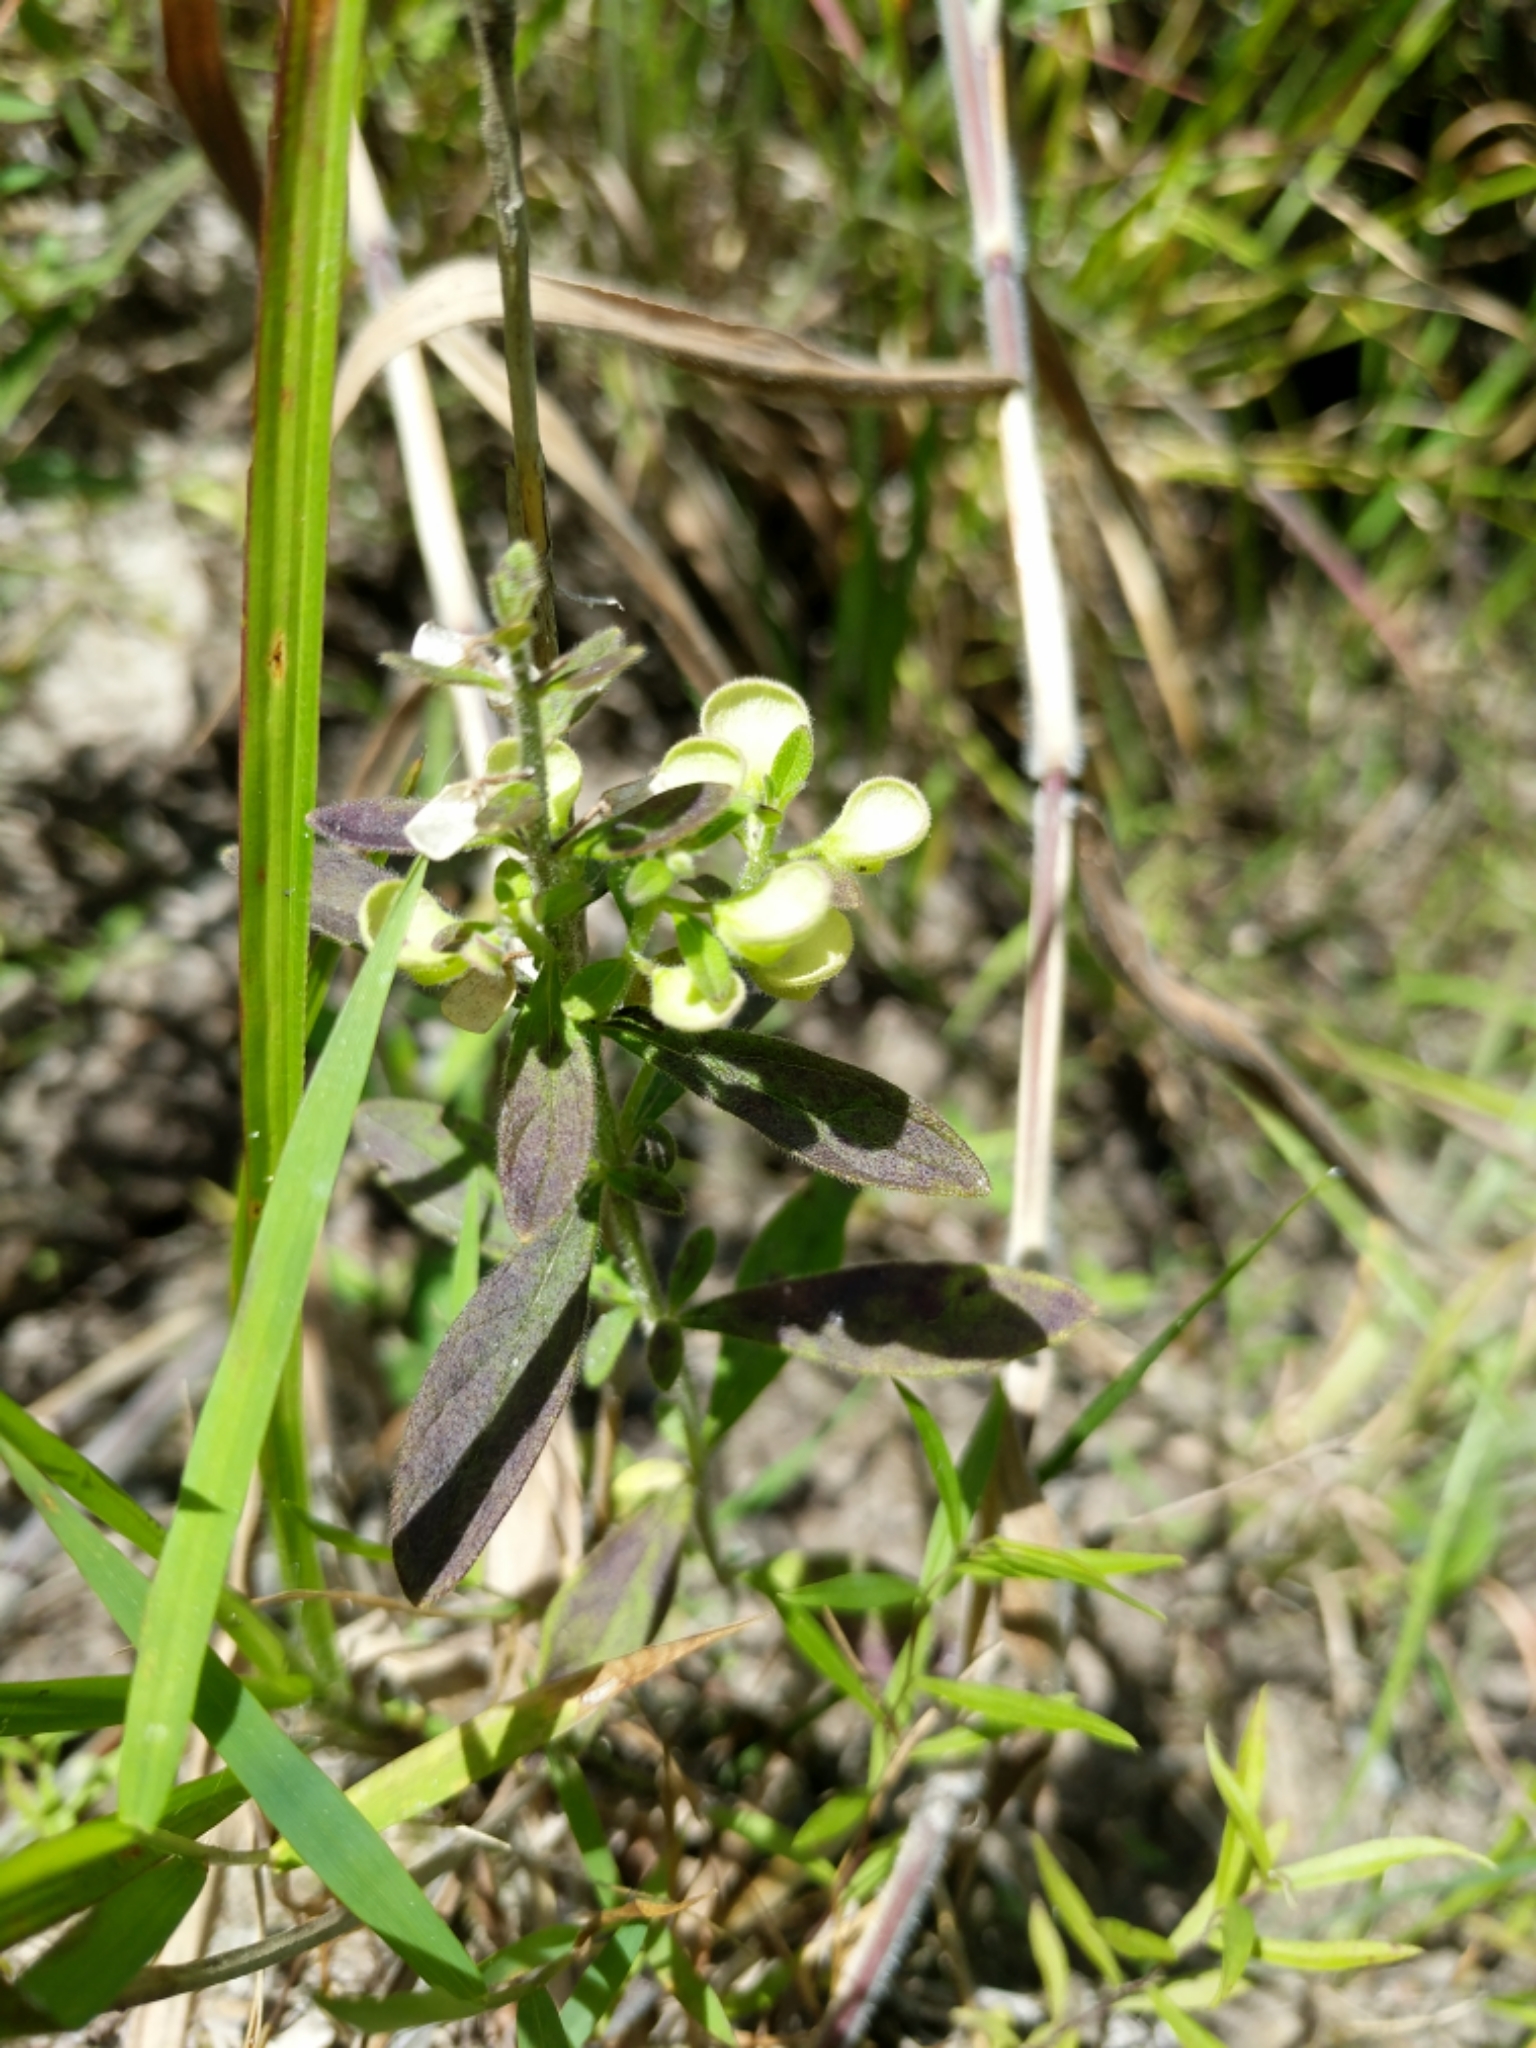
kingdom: Plantae
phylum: Tracheophyta
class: Magnoliopsida
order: Lamiales
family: Lamiaceae
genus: Scutellaria
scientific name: Scutellaria integrifolia
